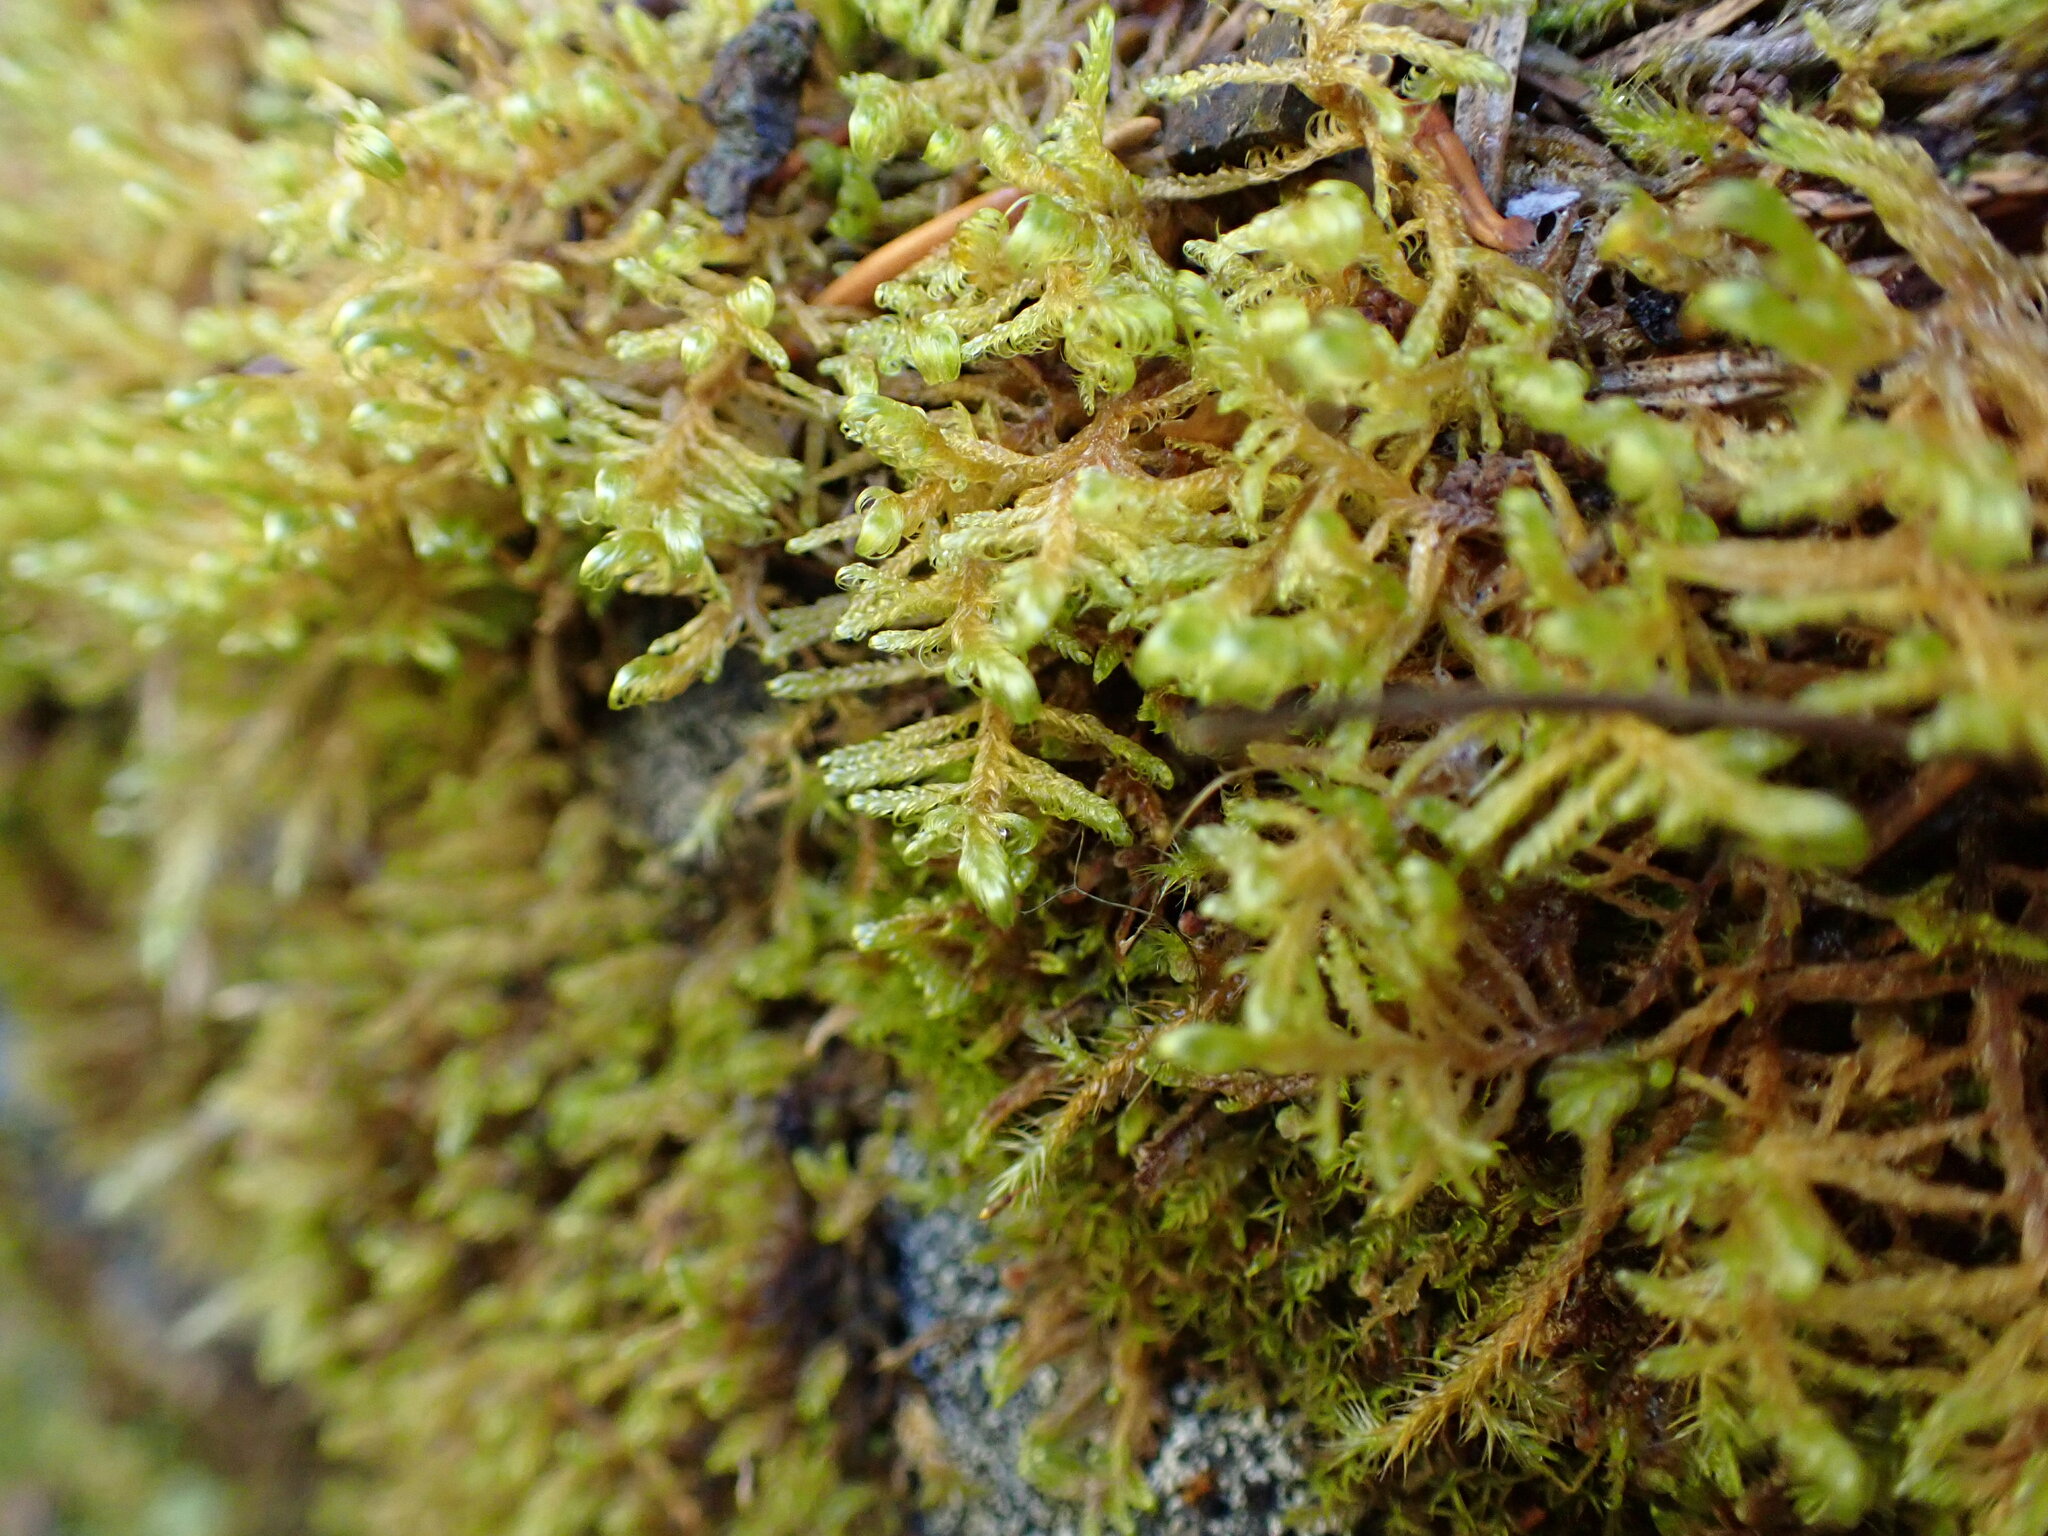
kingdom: Plantae
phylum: Bryophyta
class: Bryopsida
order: Hypnales
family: Scorpidiaceae
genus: Sanionia
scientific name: Sanionia uncinata
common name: Sickle moss
